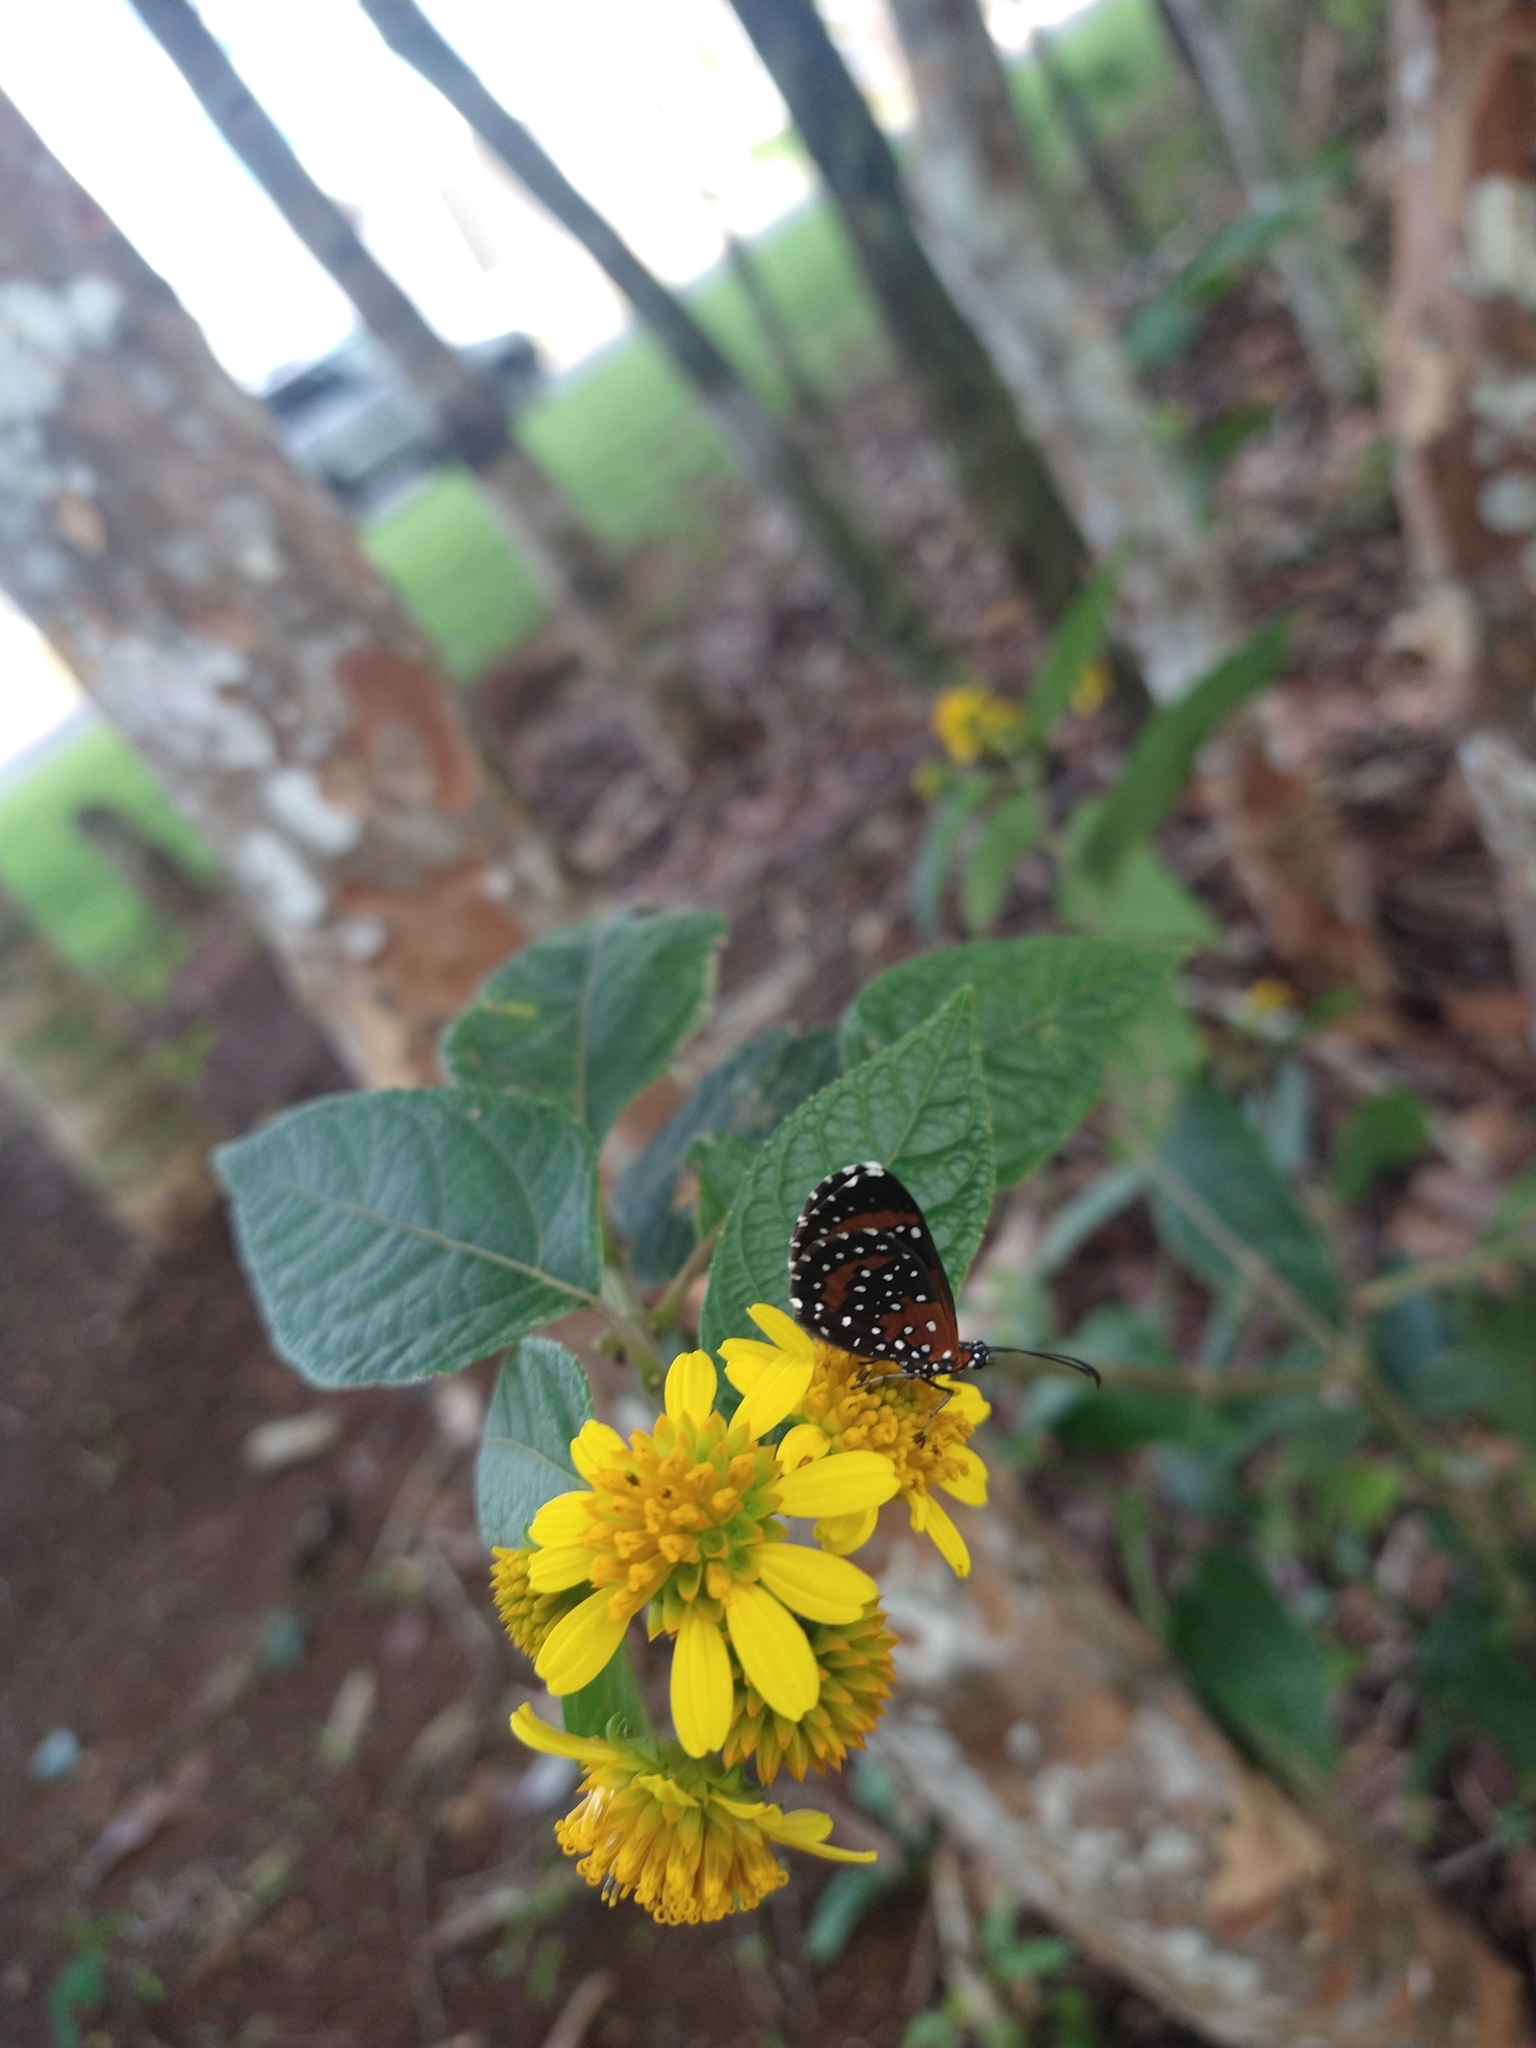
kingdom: Animalia
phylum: Arthropoda
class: Insecta
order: Lepidoptera
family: Riodinidae
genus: Stalachtis
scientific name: Stalachtis phlegia
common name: Dotted prince
